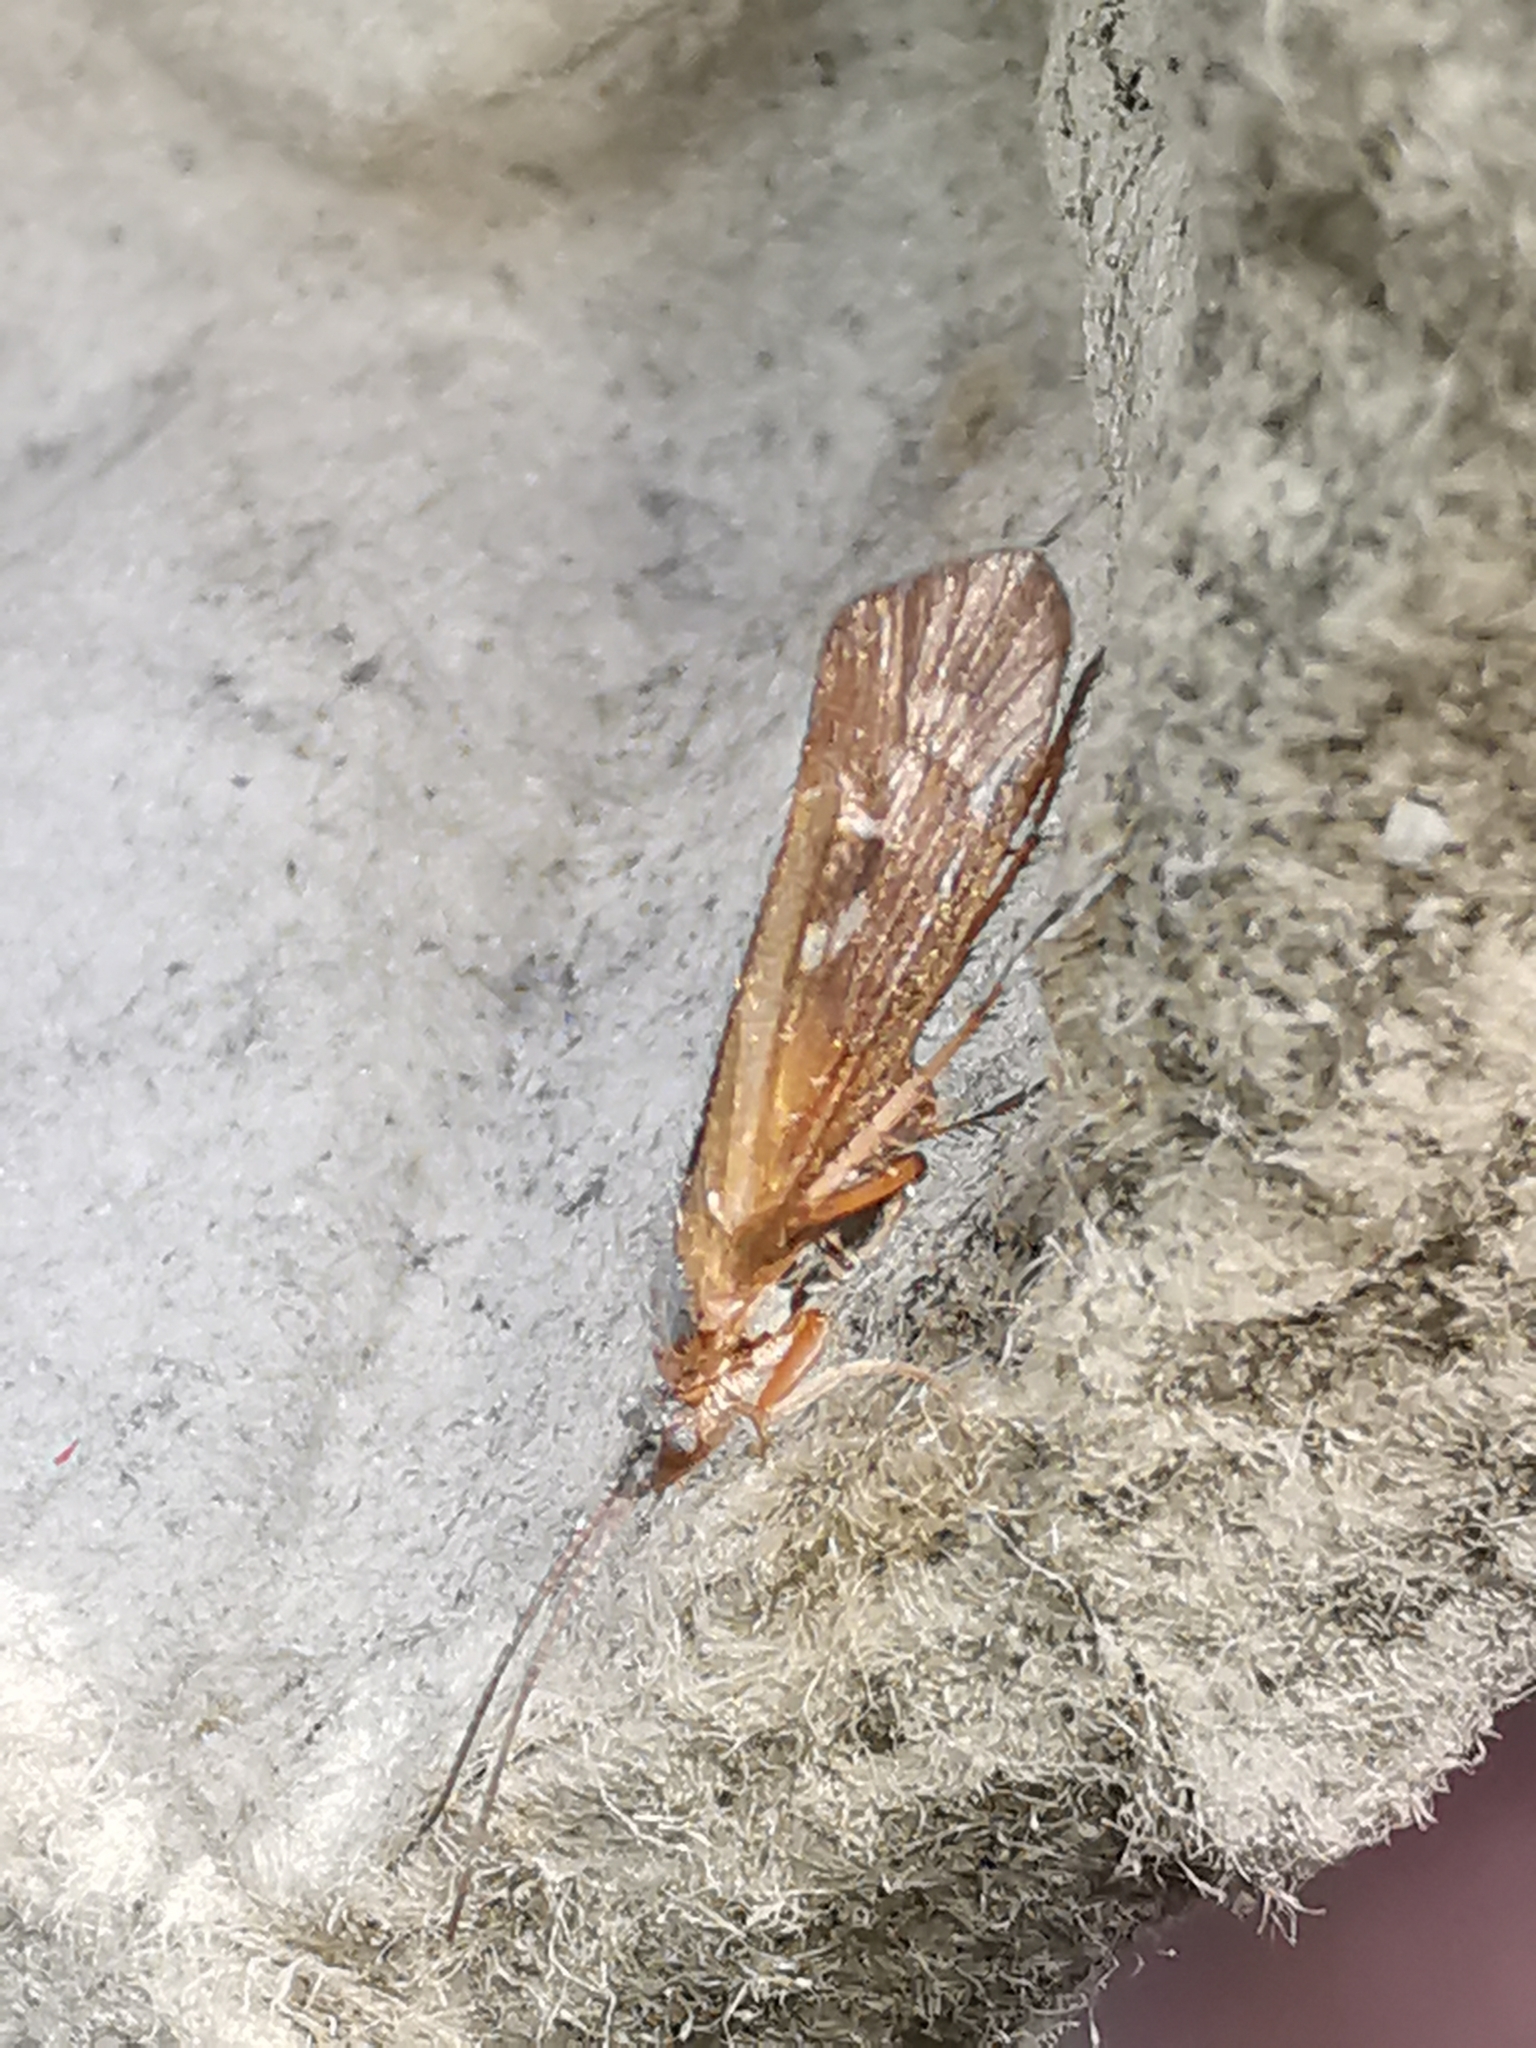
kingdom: Animalia
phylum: Arthropoda
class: Insecta
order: Trichoptera
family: Limnephilidae
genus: Limnephilus
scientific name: Limnephilus auricula
